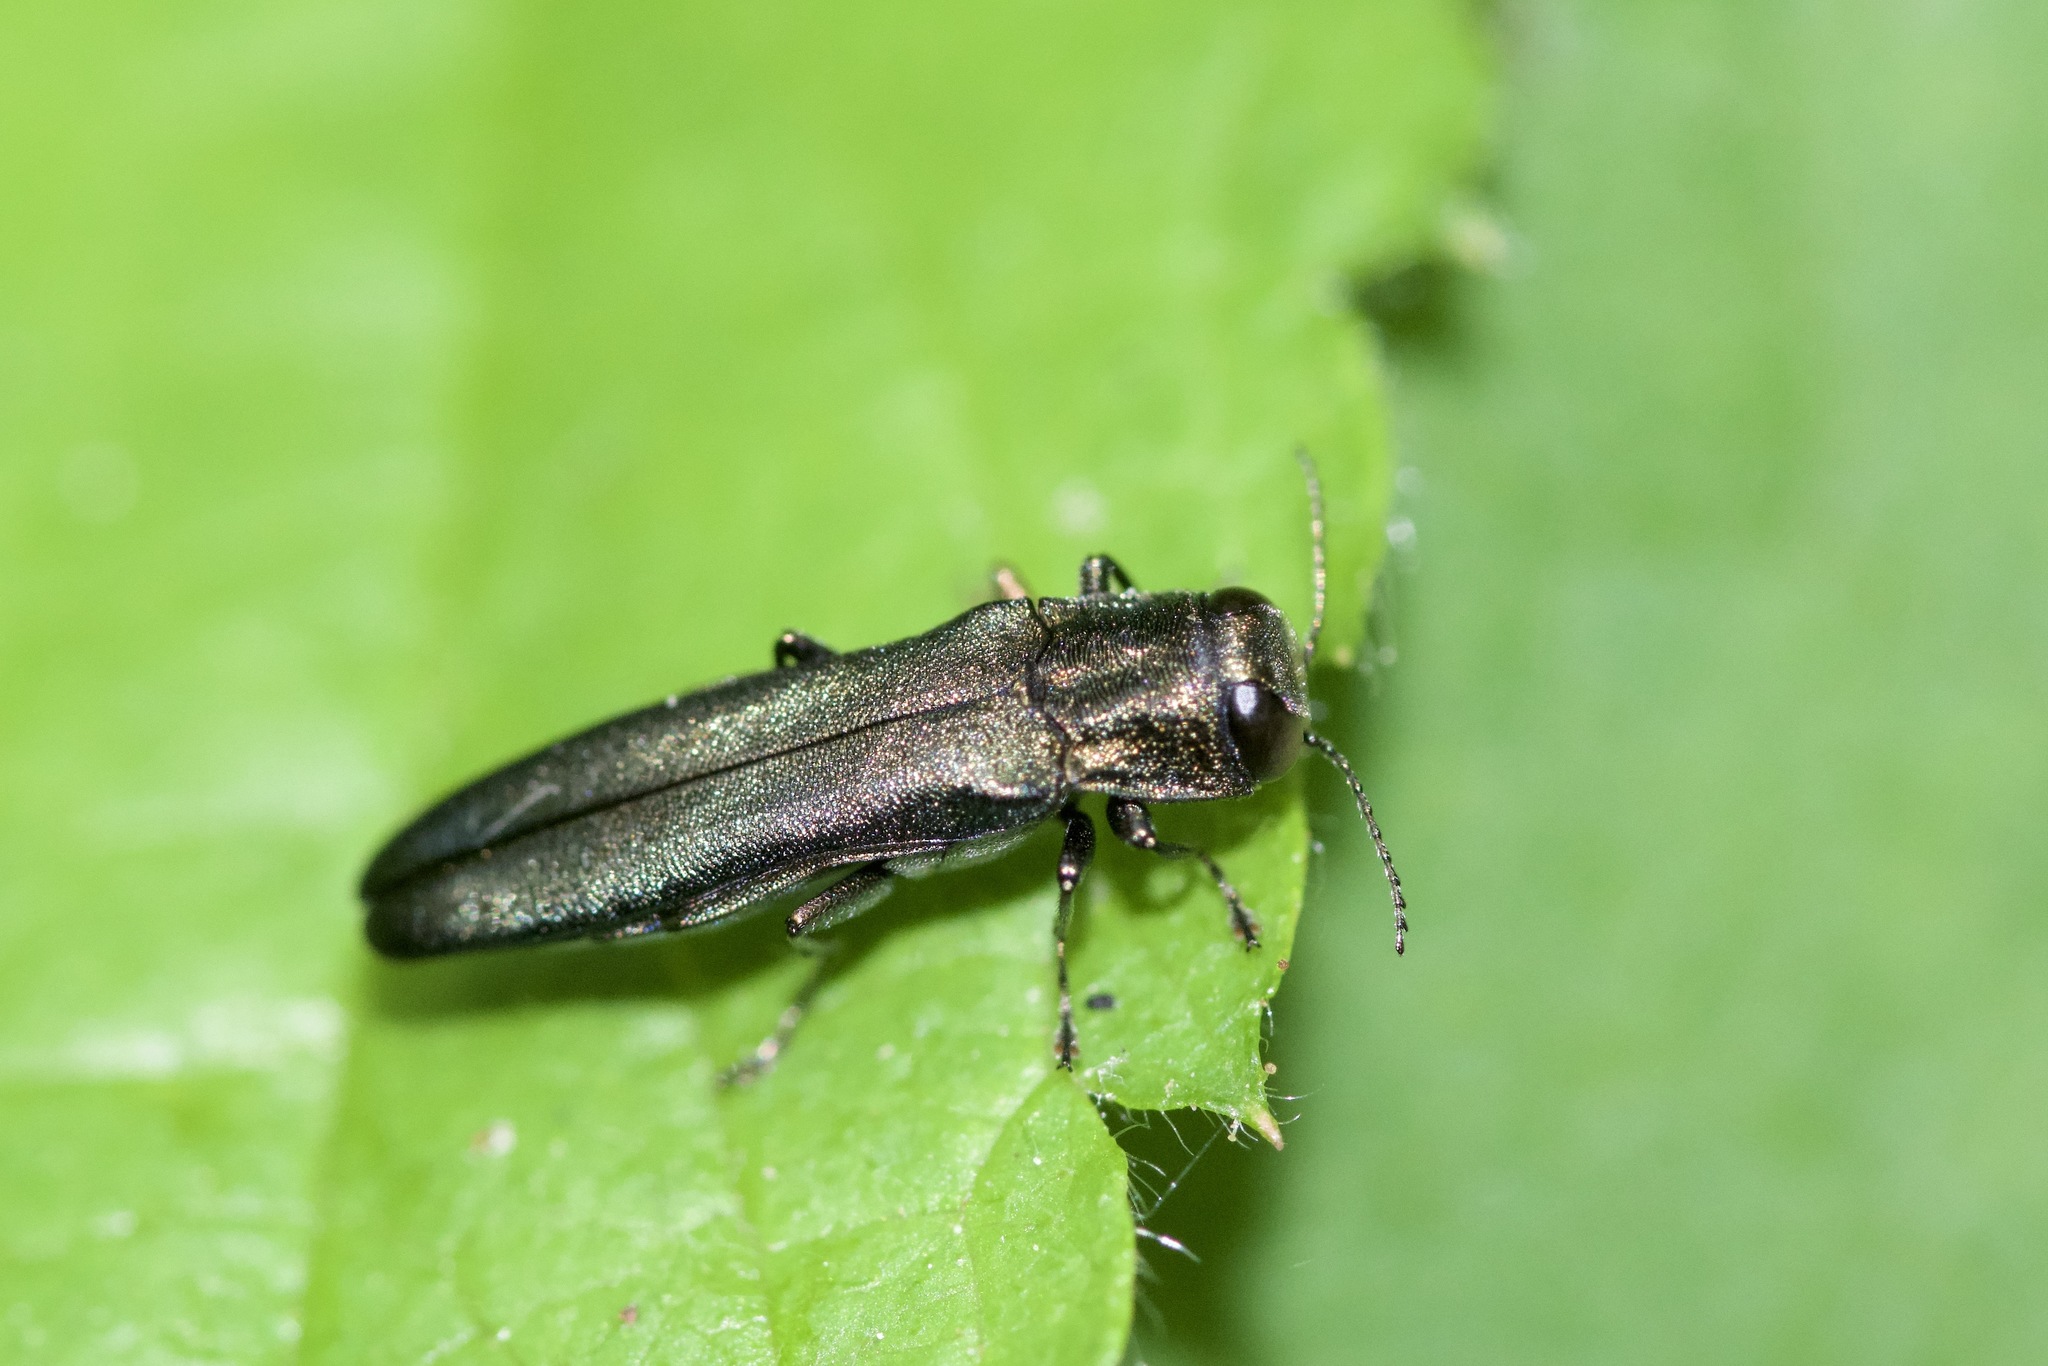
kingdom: Animalia
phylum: Arthropoda
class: Insecta
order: Coleoptera
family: Buprestidae
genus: Agrilus
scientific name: Agrilus sulcicollis
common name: European oak borer
